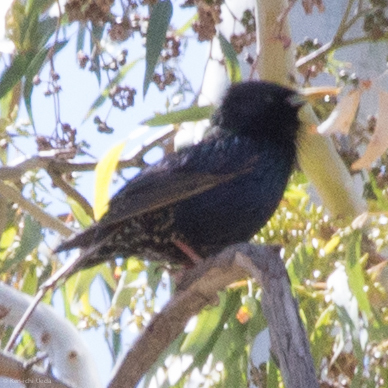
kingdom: Animalia
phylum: Chordata
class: Aves
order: Passeriformes
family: Sturnidae
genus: Sturnus
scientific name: Sturnus vulgaris
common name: Common starling
